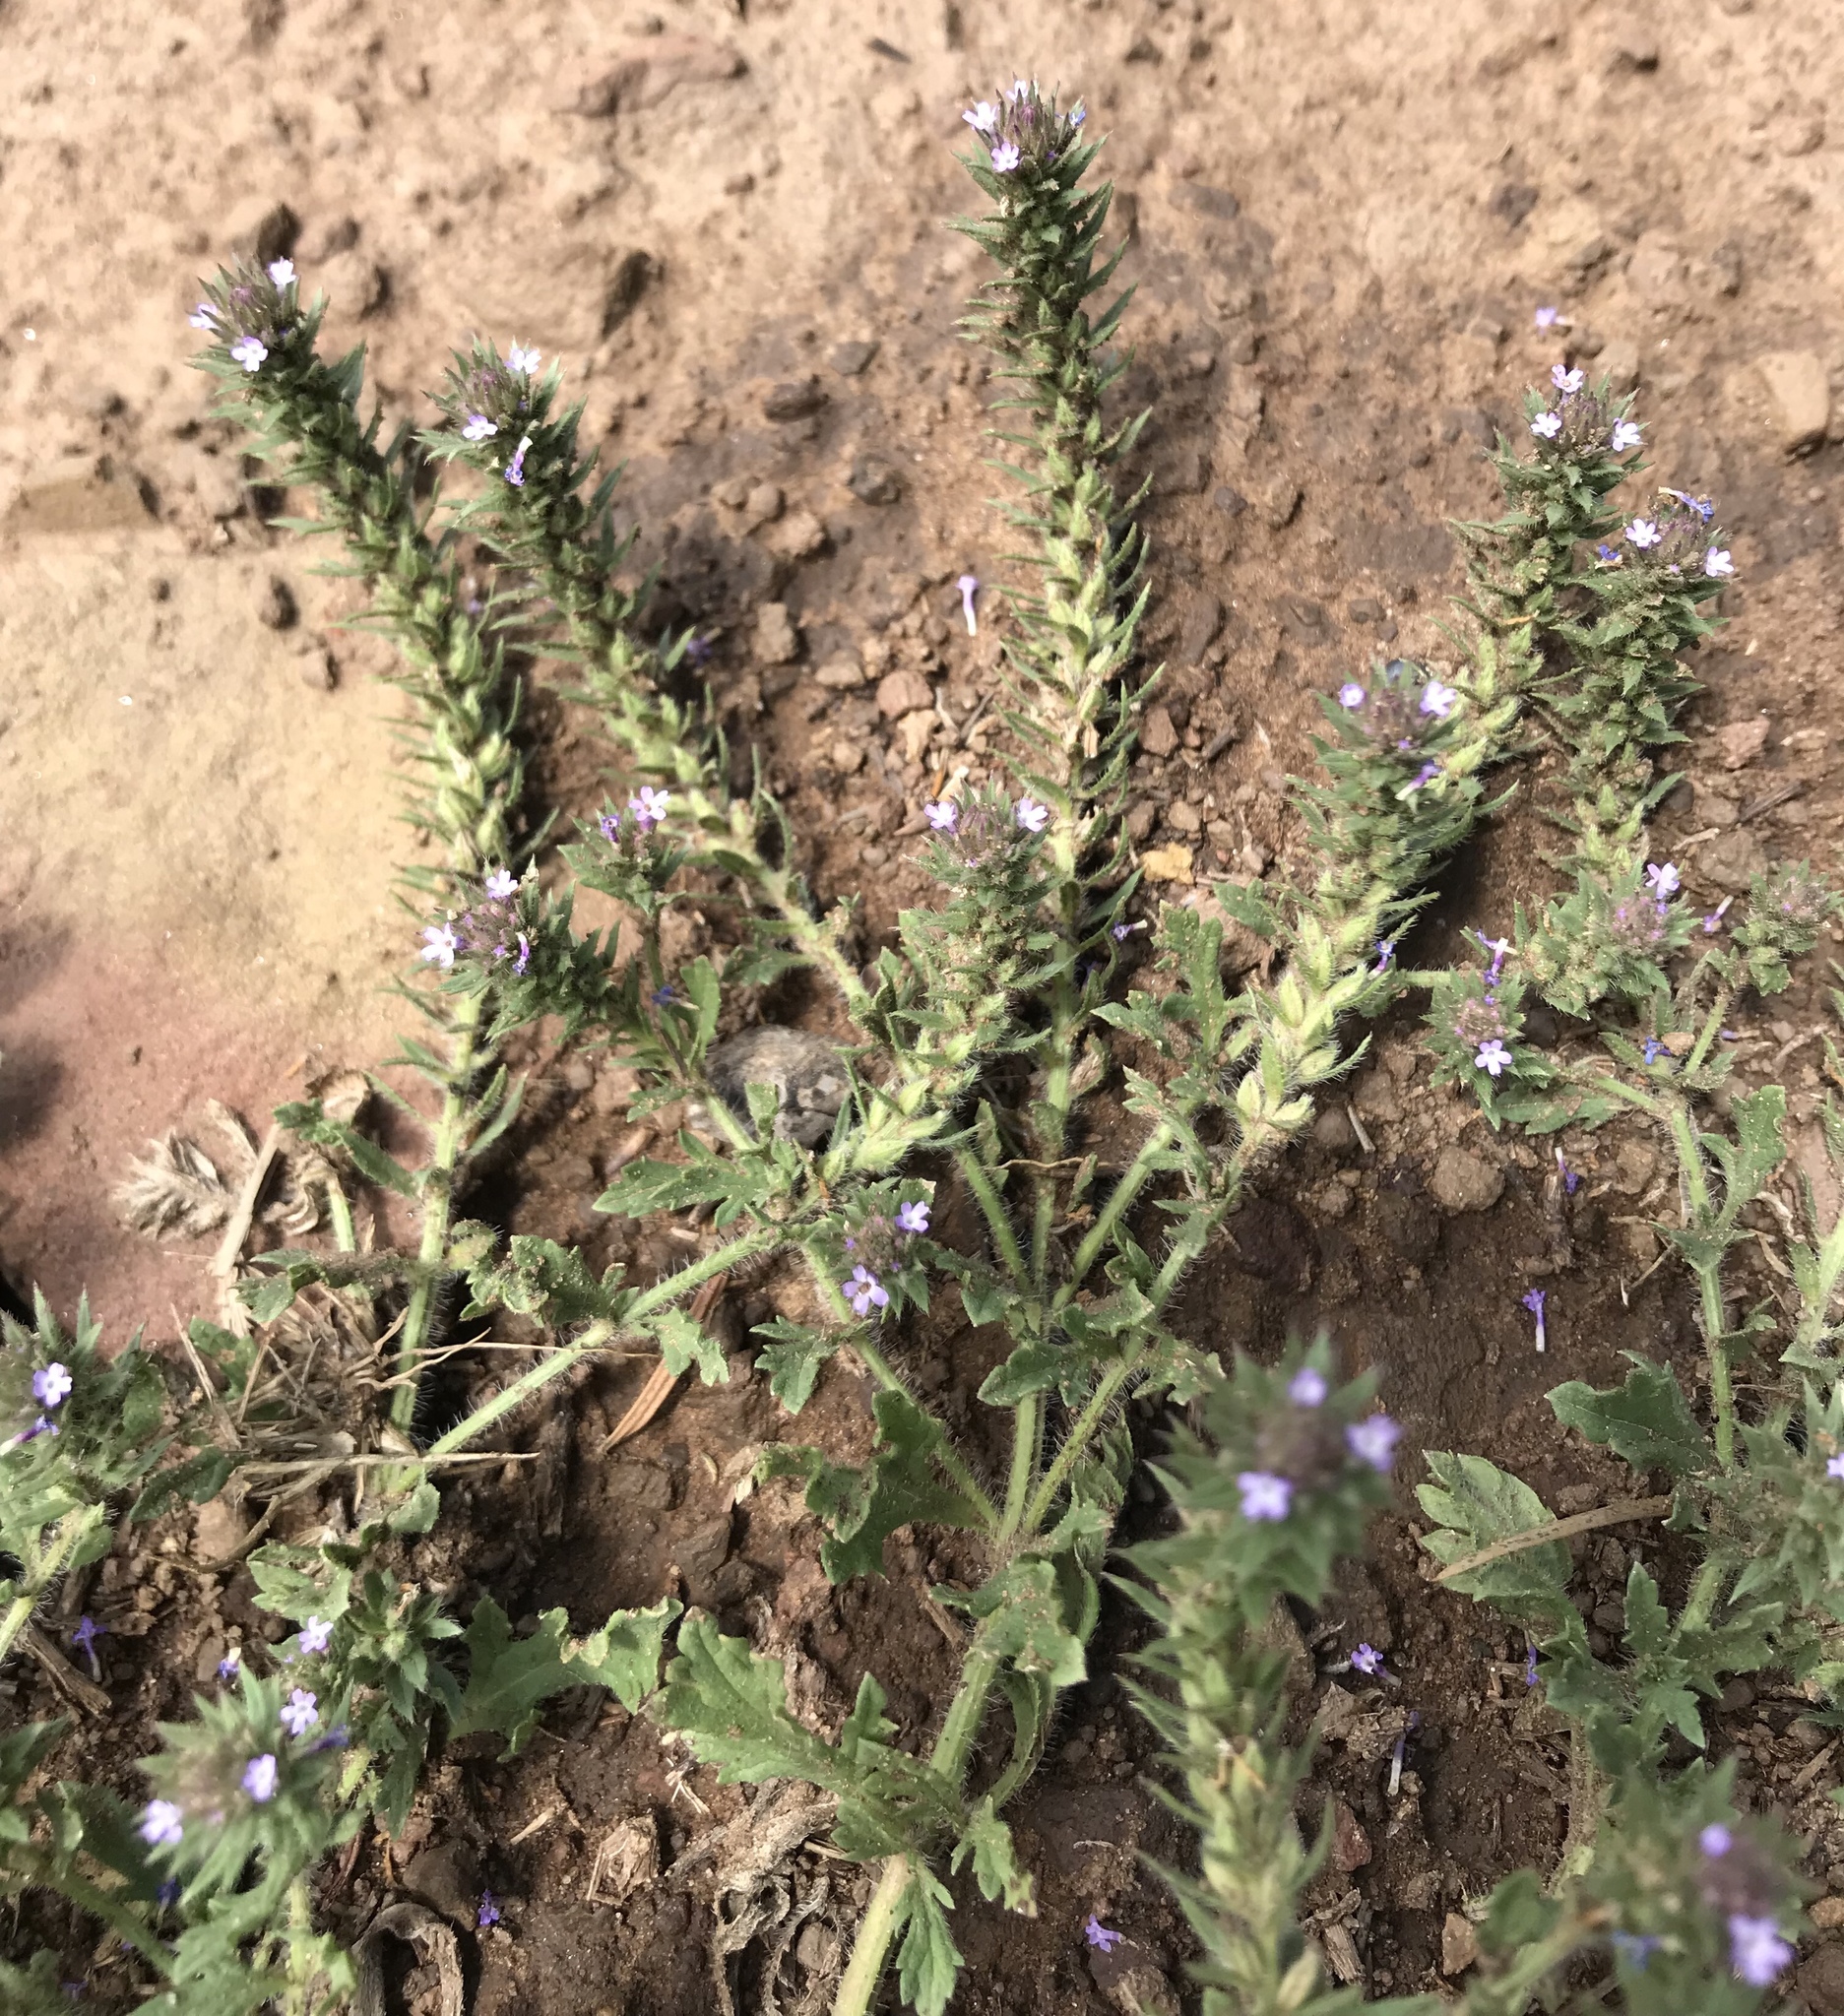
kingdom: Plantae
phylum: Tracheophyta
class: Magnoliopsida
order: Lamiales
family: Verbenaceae
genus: Verbena
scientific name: Verbena bracteata
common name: Bracted vervain
